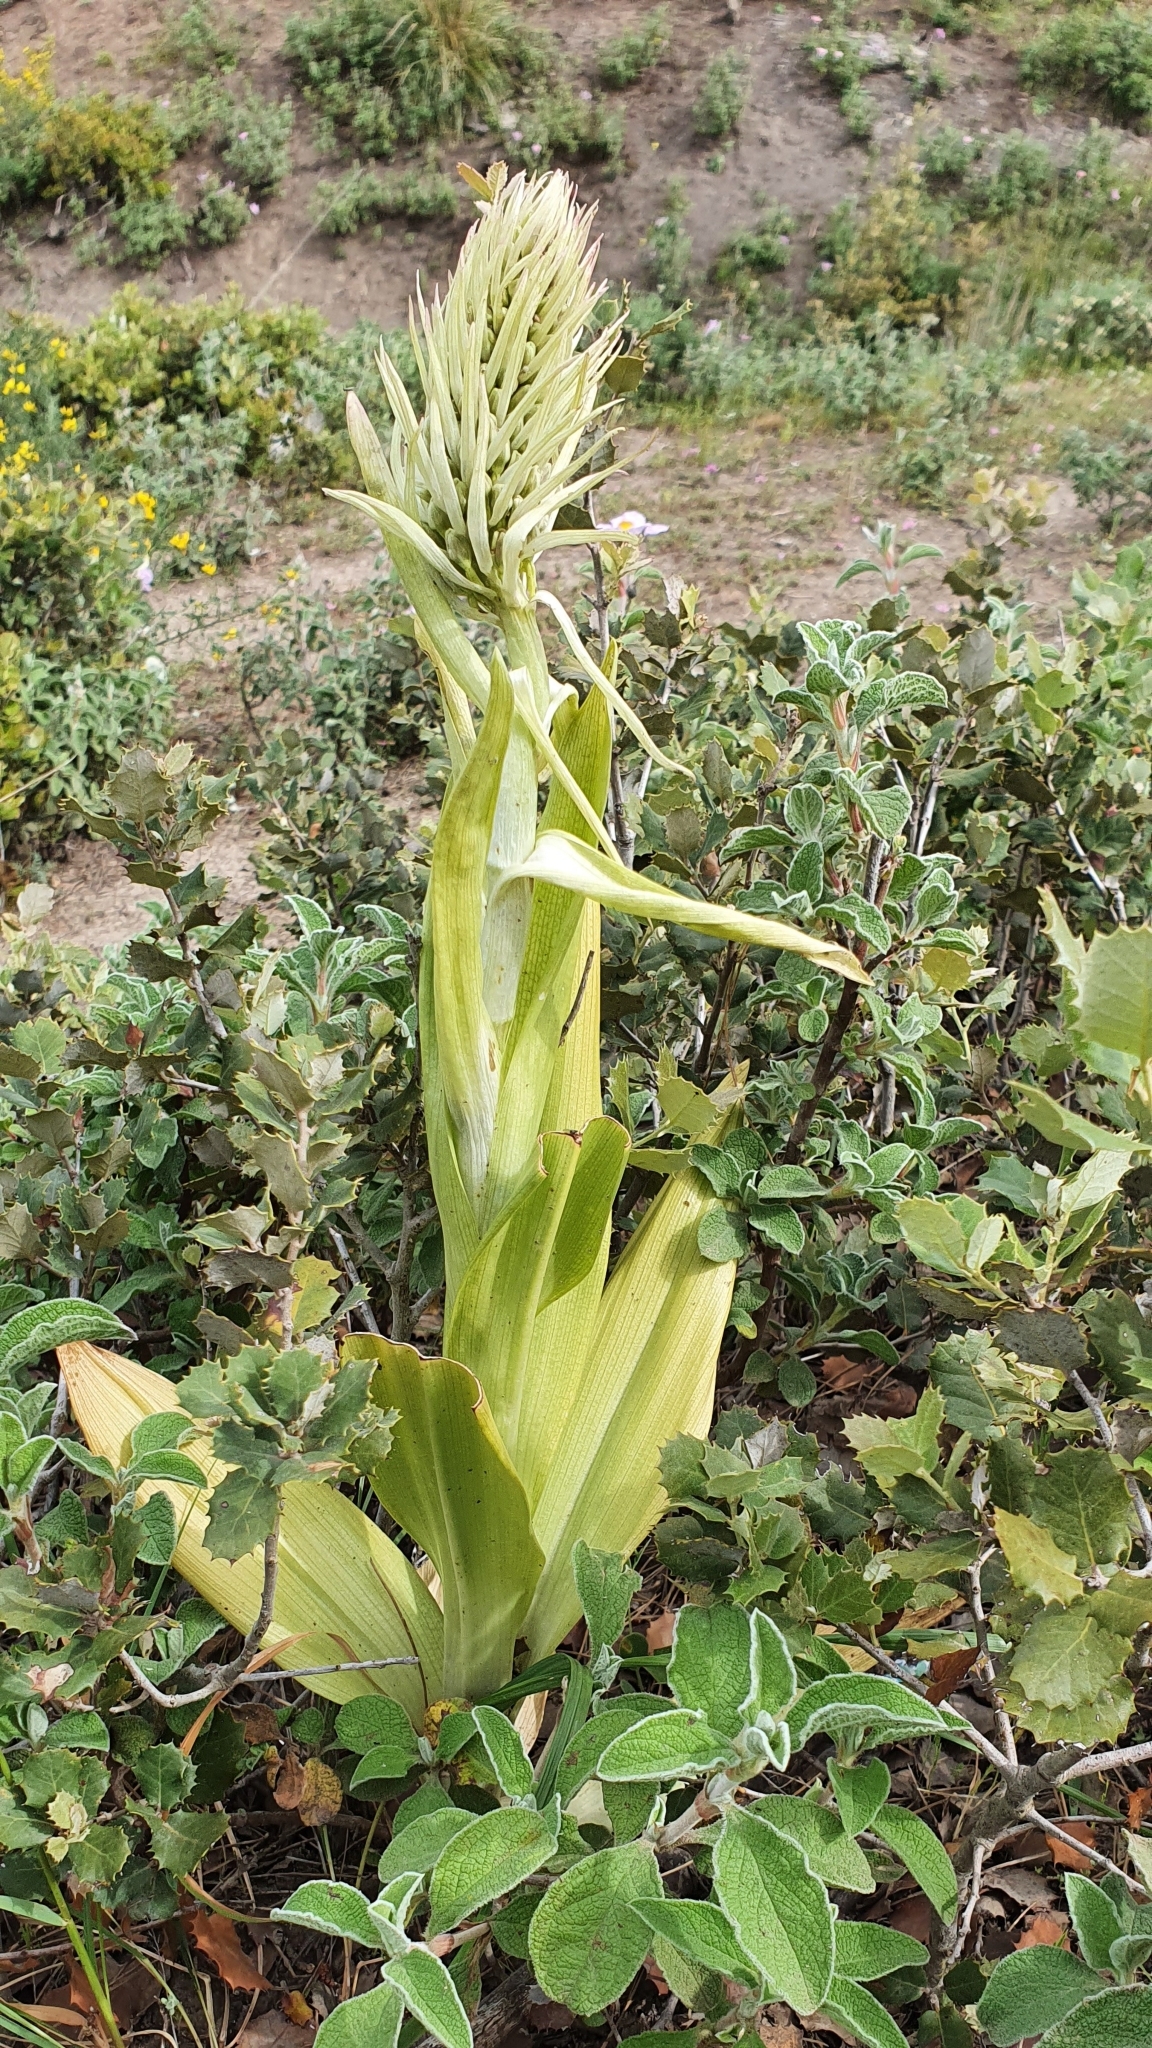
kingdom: Plantae
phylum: Tracheophyta
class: Liliopsida
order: Asparagales
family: Orchidaceae
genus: Himantoglossum
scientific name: Himantoglossum hircinum
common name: Lizard orchid
